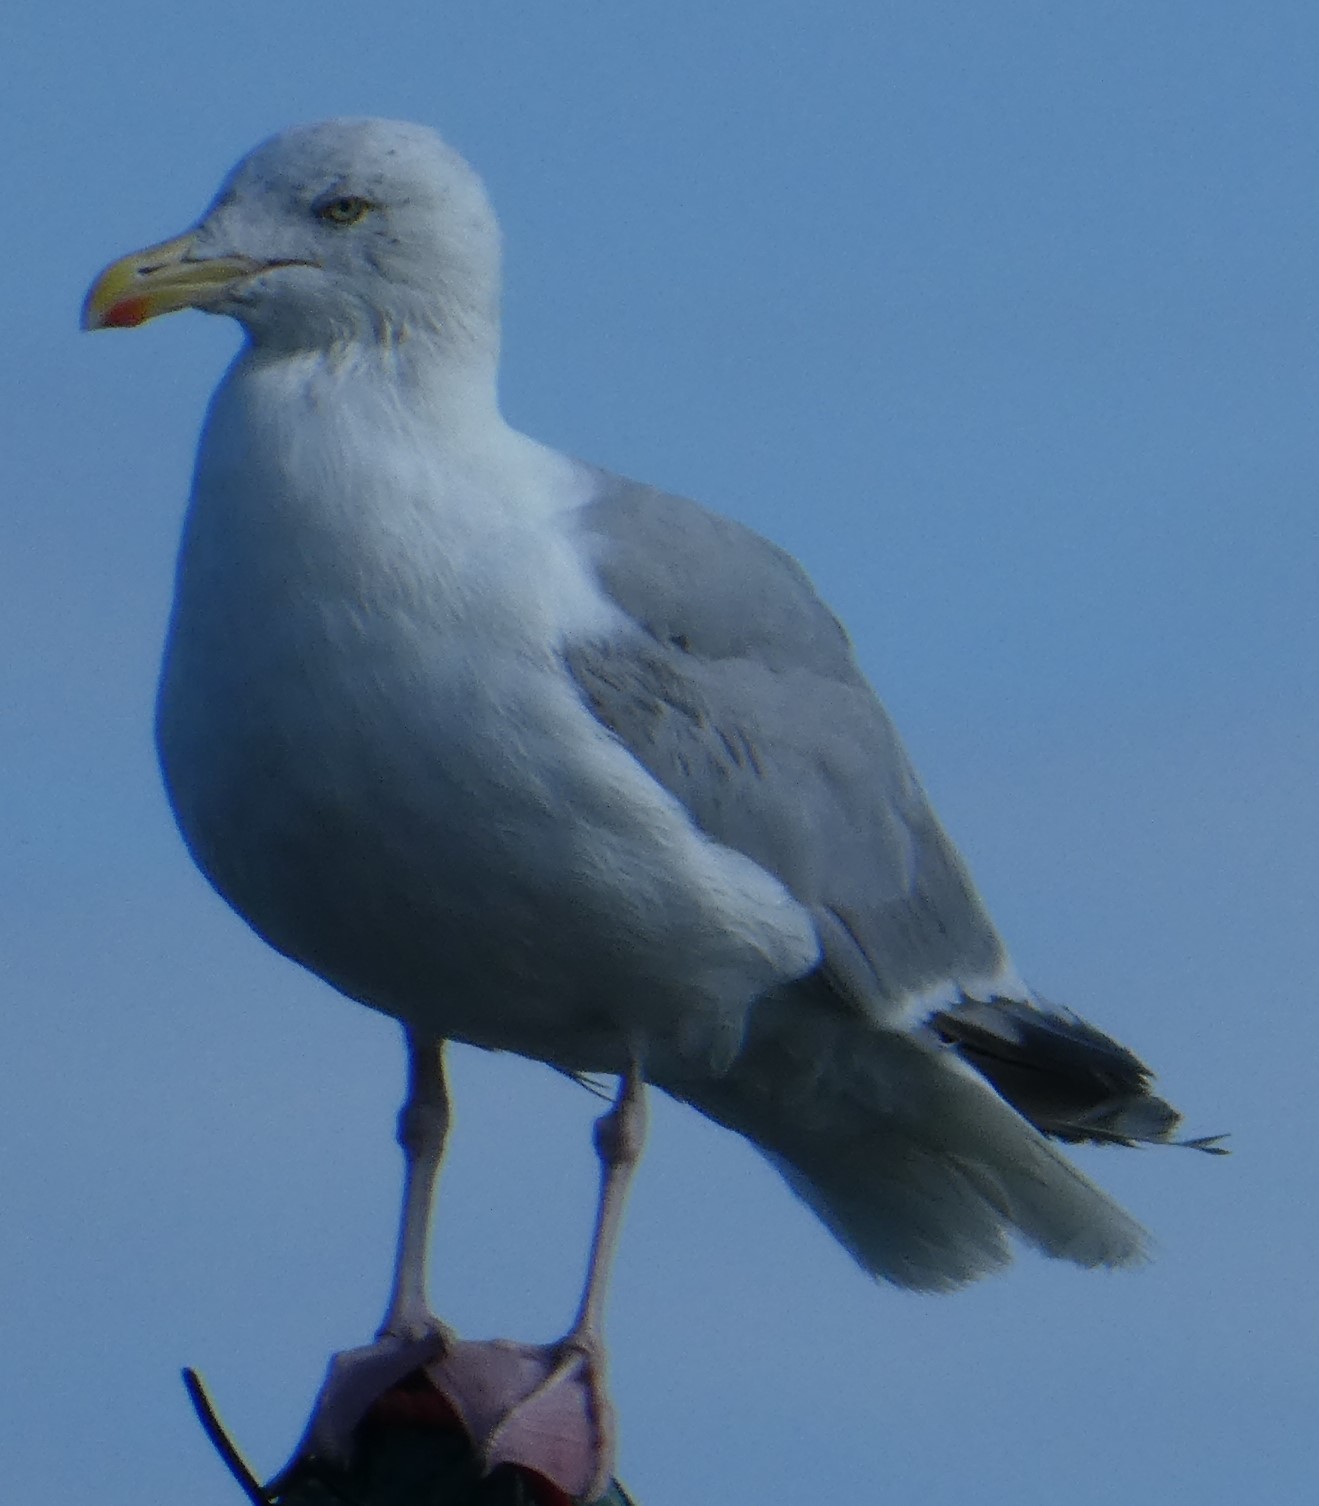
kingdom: Animalia
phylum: Chordata
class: Aves
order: Charadriiformes
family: Laridae
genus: Larus
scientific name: Larus argentatus
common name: Herring gull
